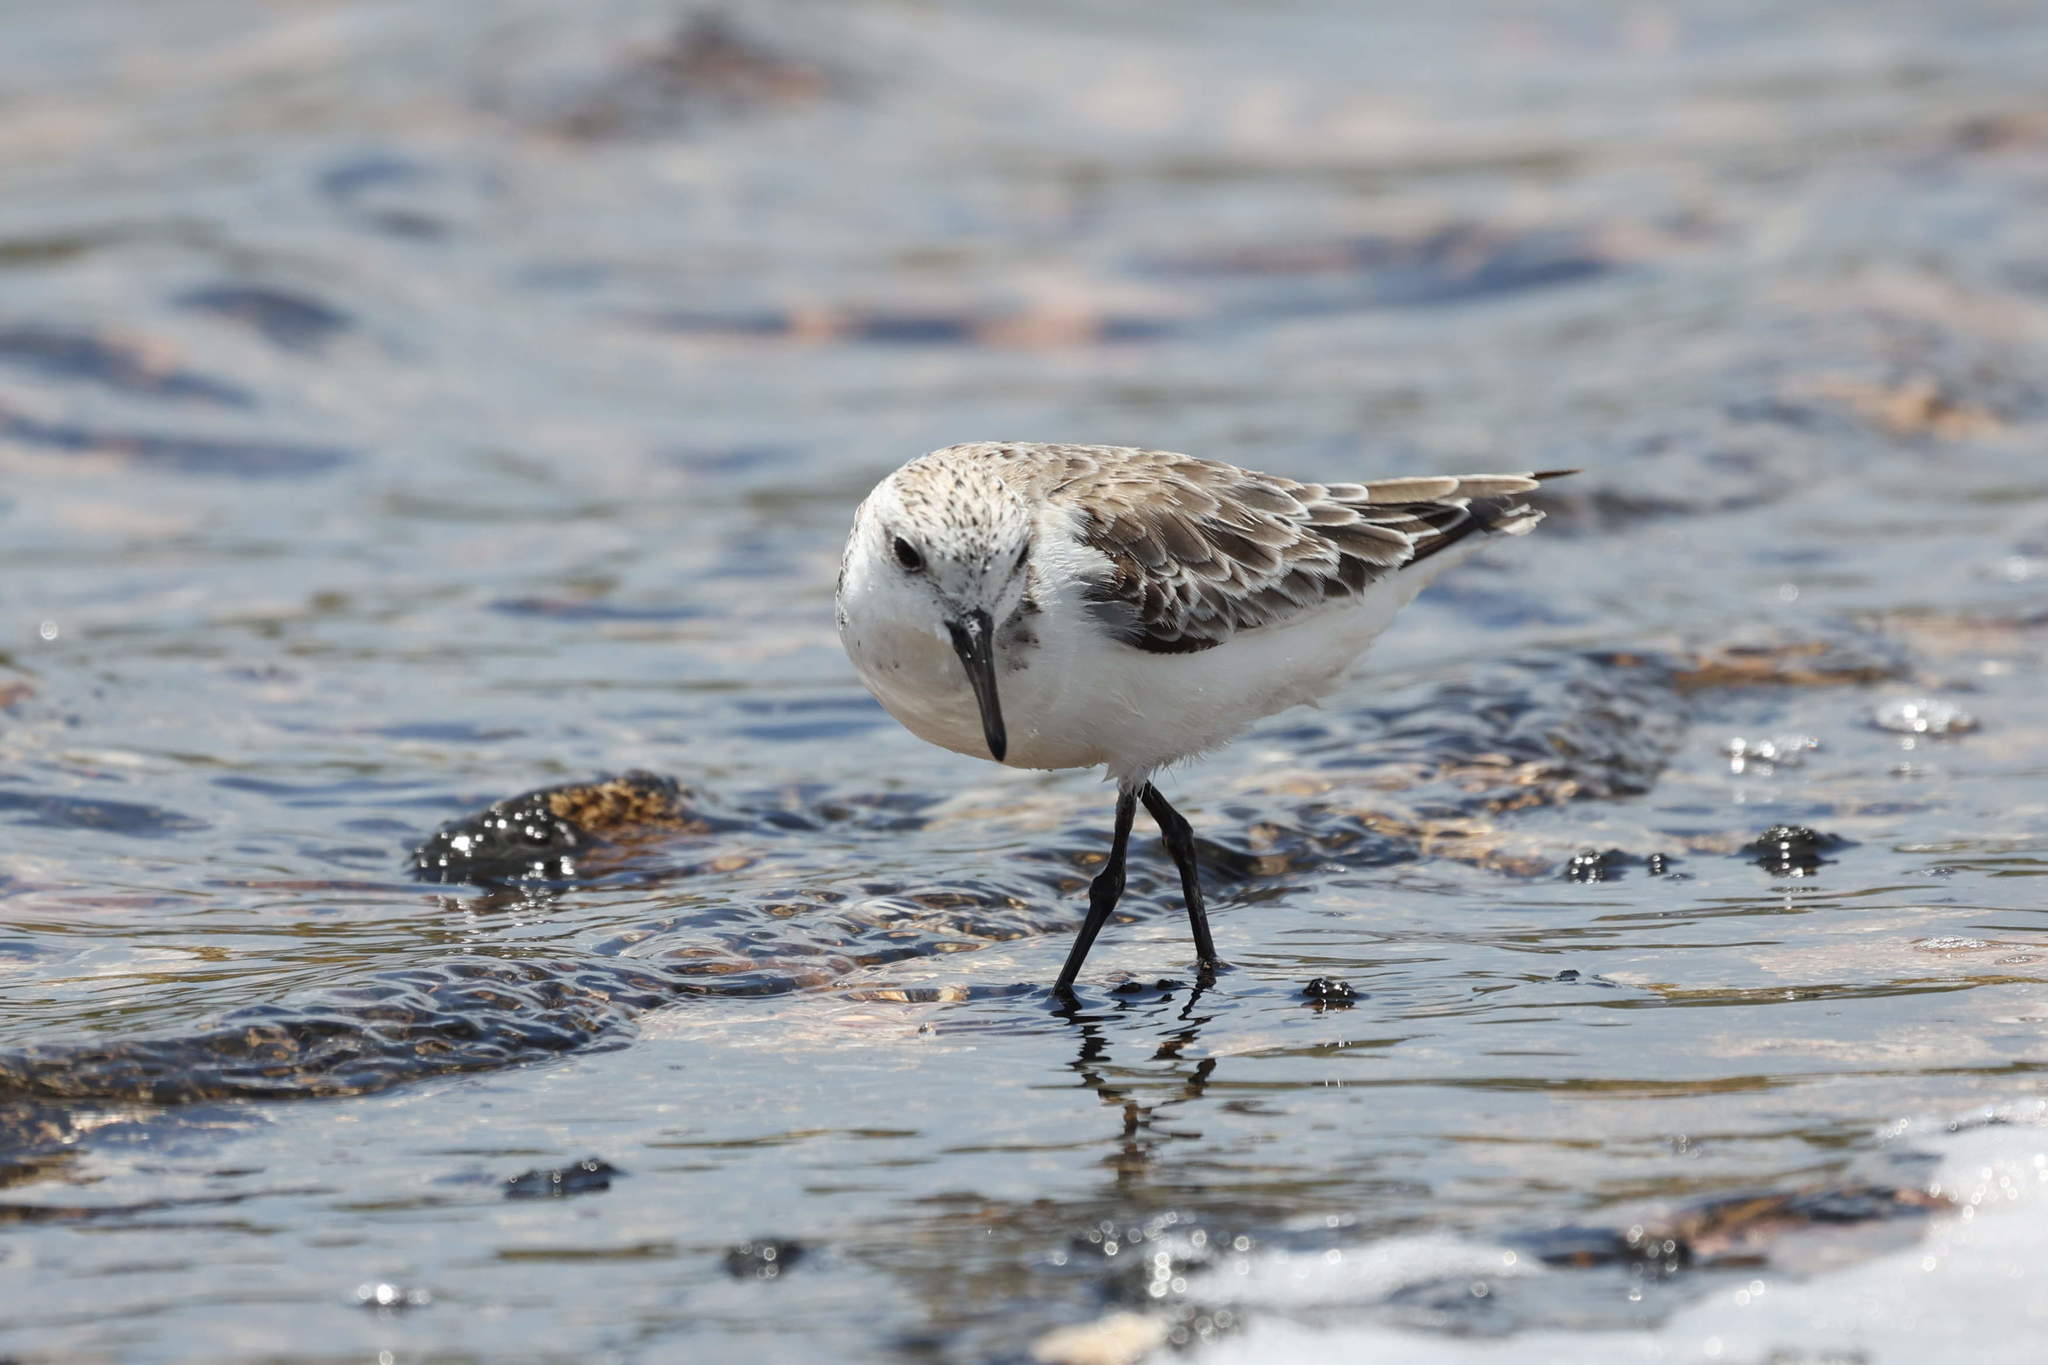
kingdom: Animalia
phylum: Chordata
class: Aves
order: Charadriiformes
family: Scolopacidae
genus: Calidris
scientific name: Calidris alba
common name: Sanderling
